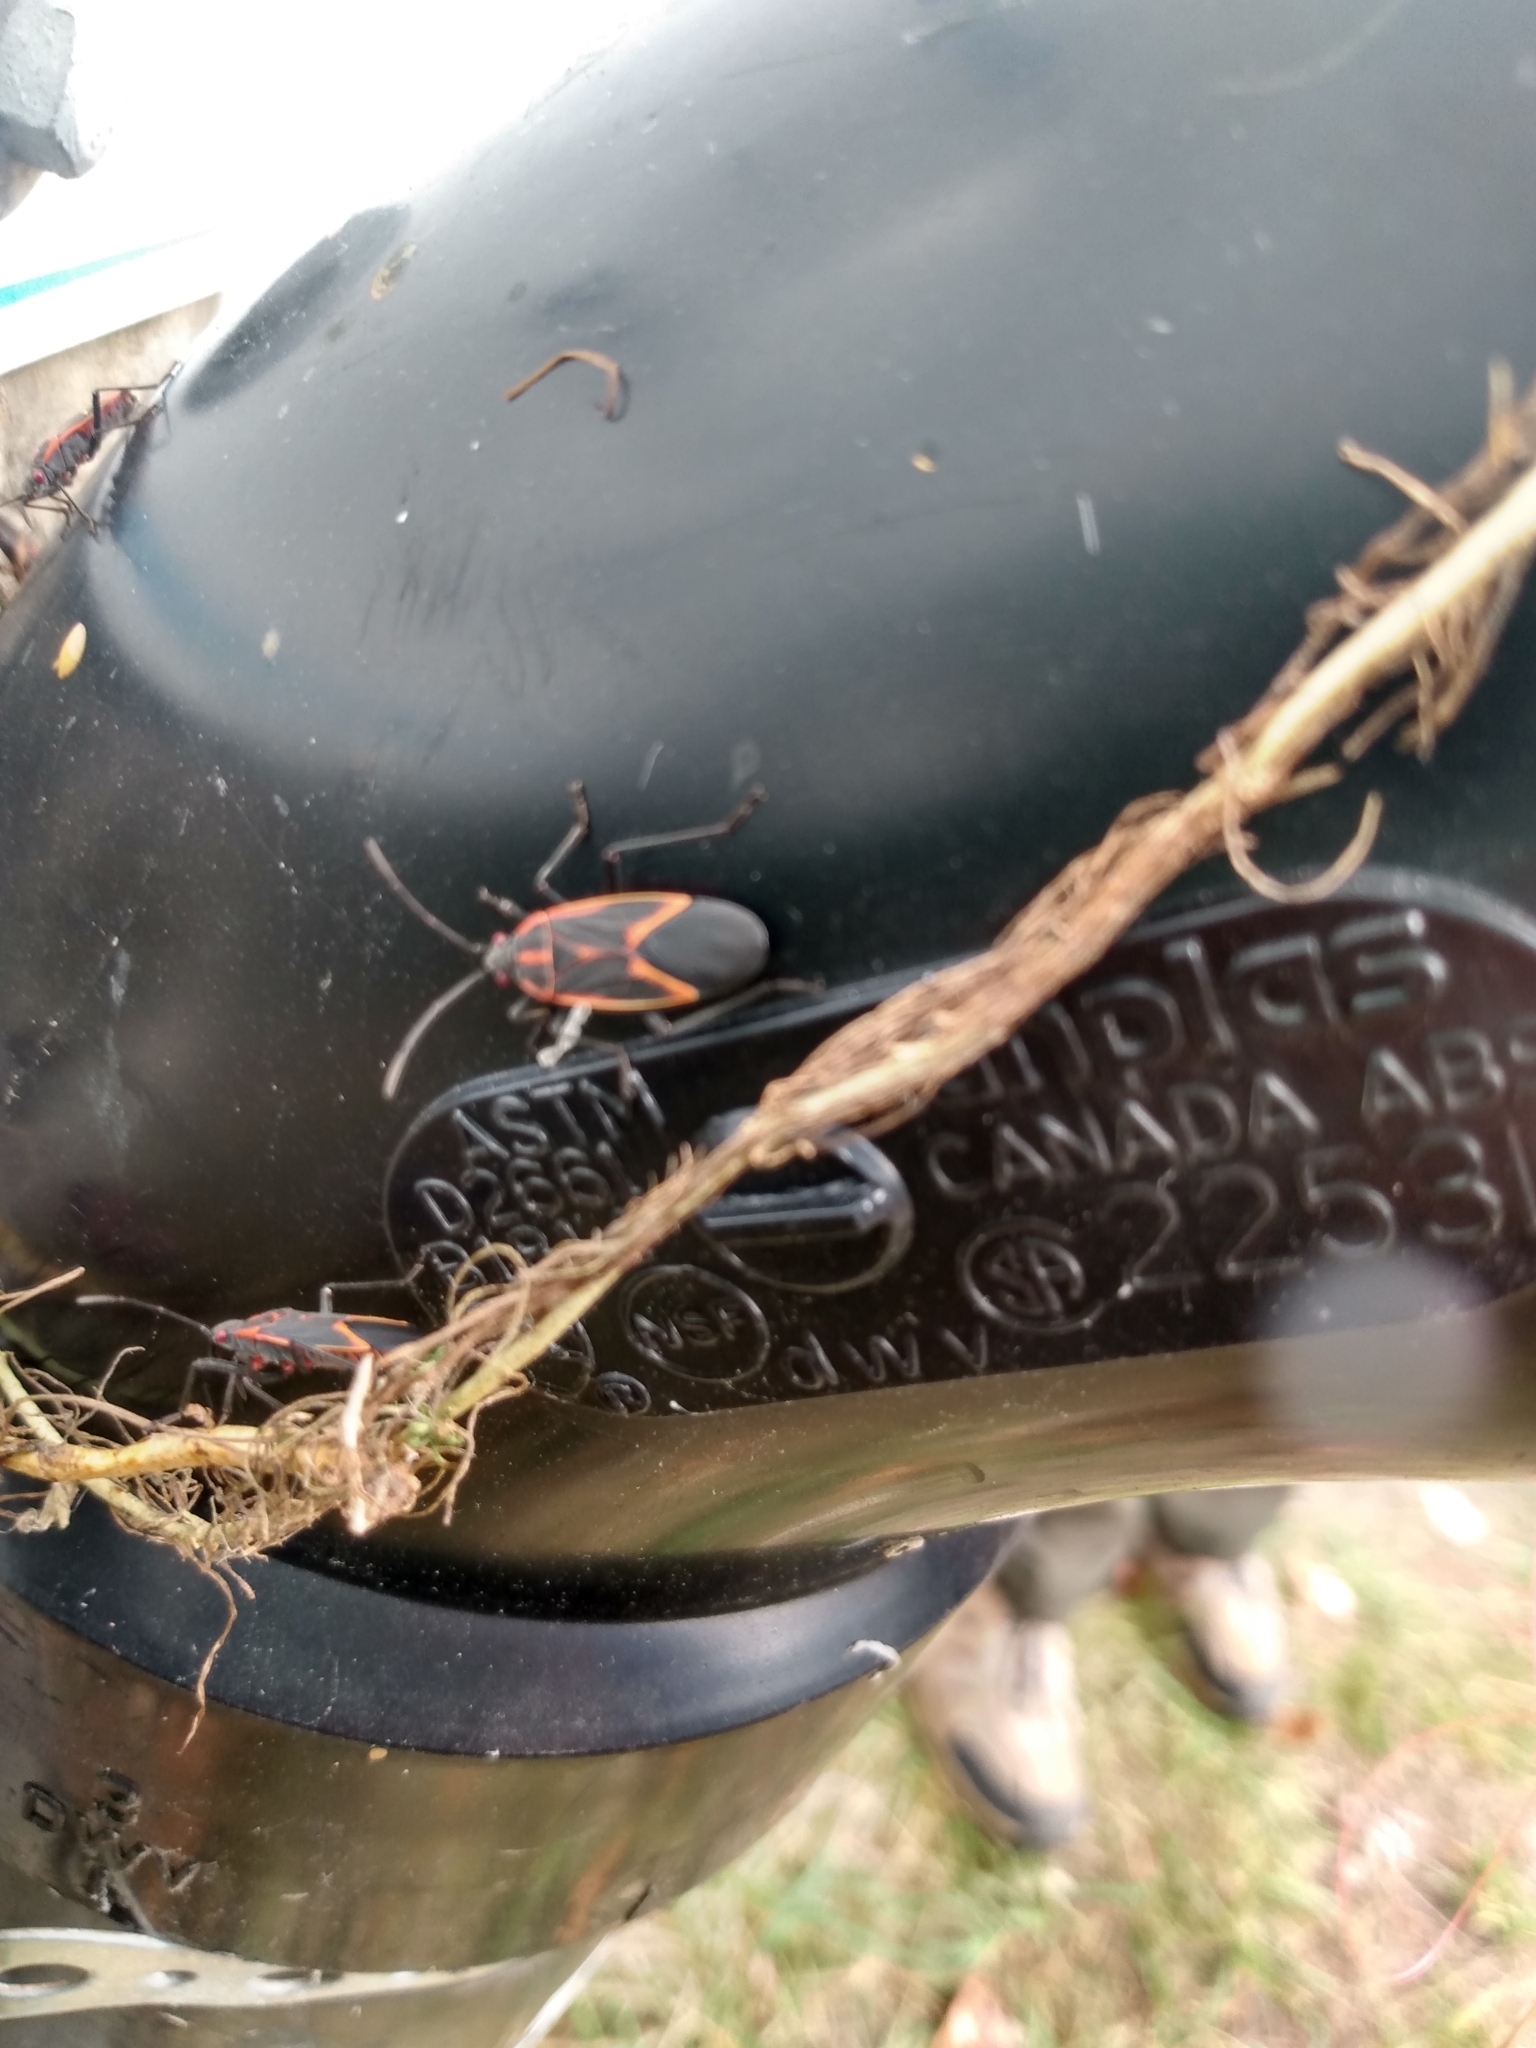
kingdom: Animalia
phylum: Arthropoda
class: Insecta
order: Hemiptera
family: Rhopalidae
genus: Boisea
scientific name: Boisea trivittata
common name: Boxelder bug
